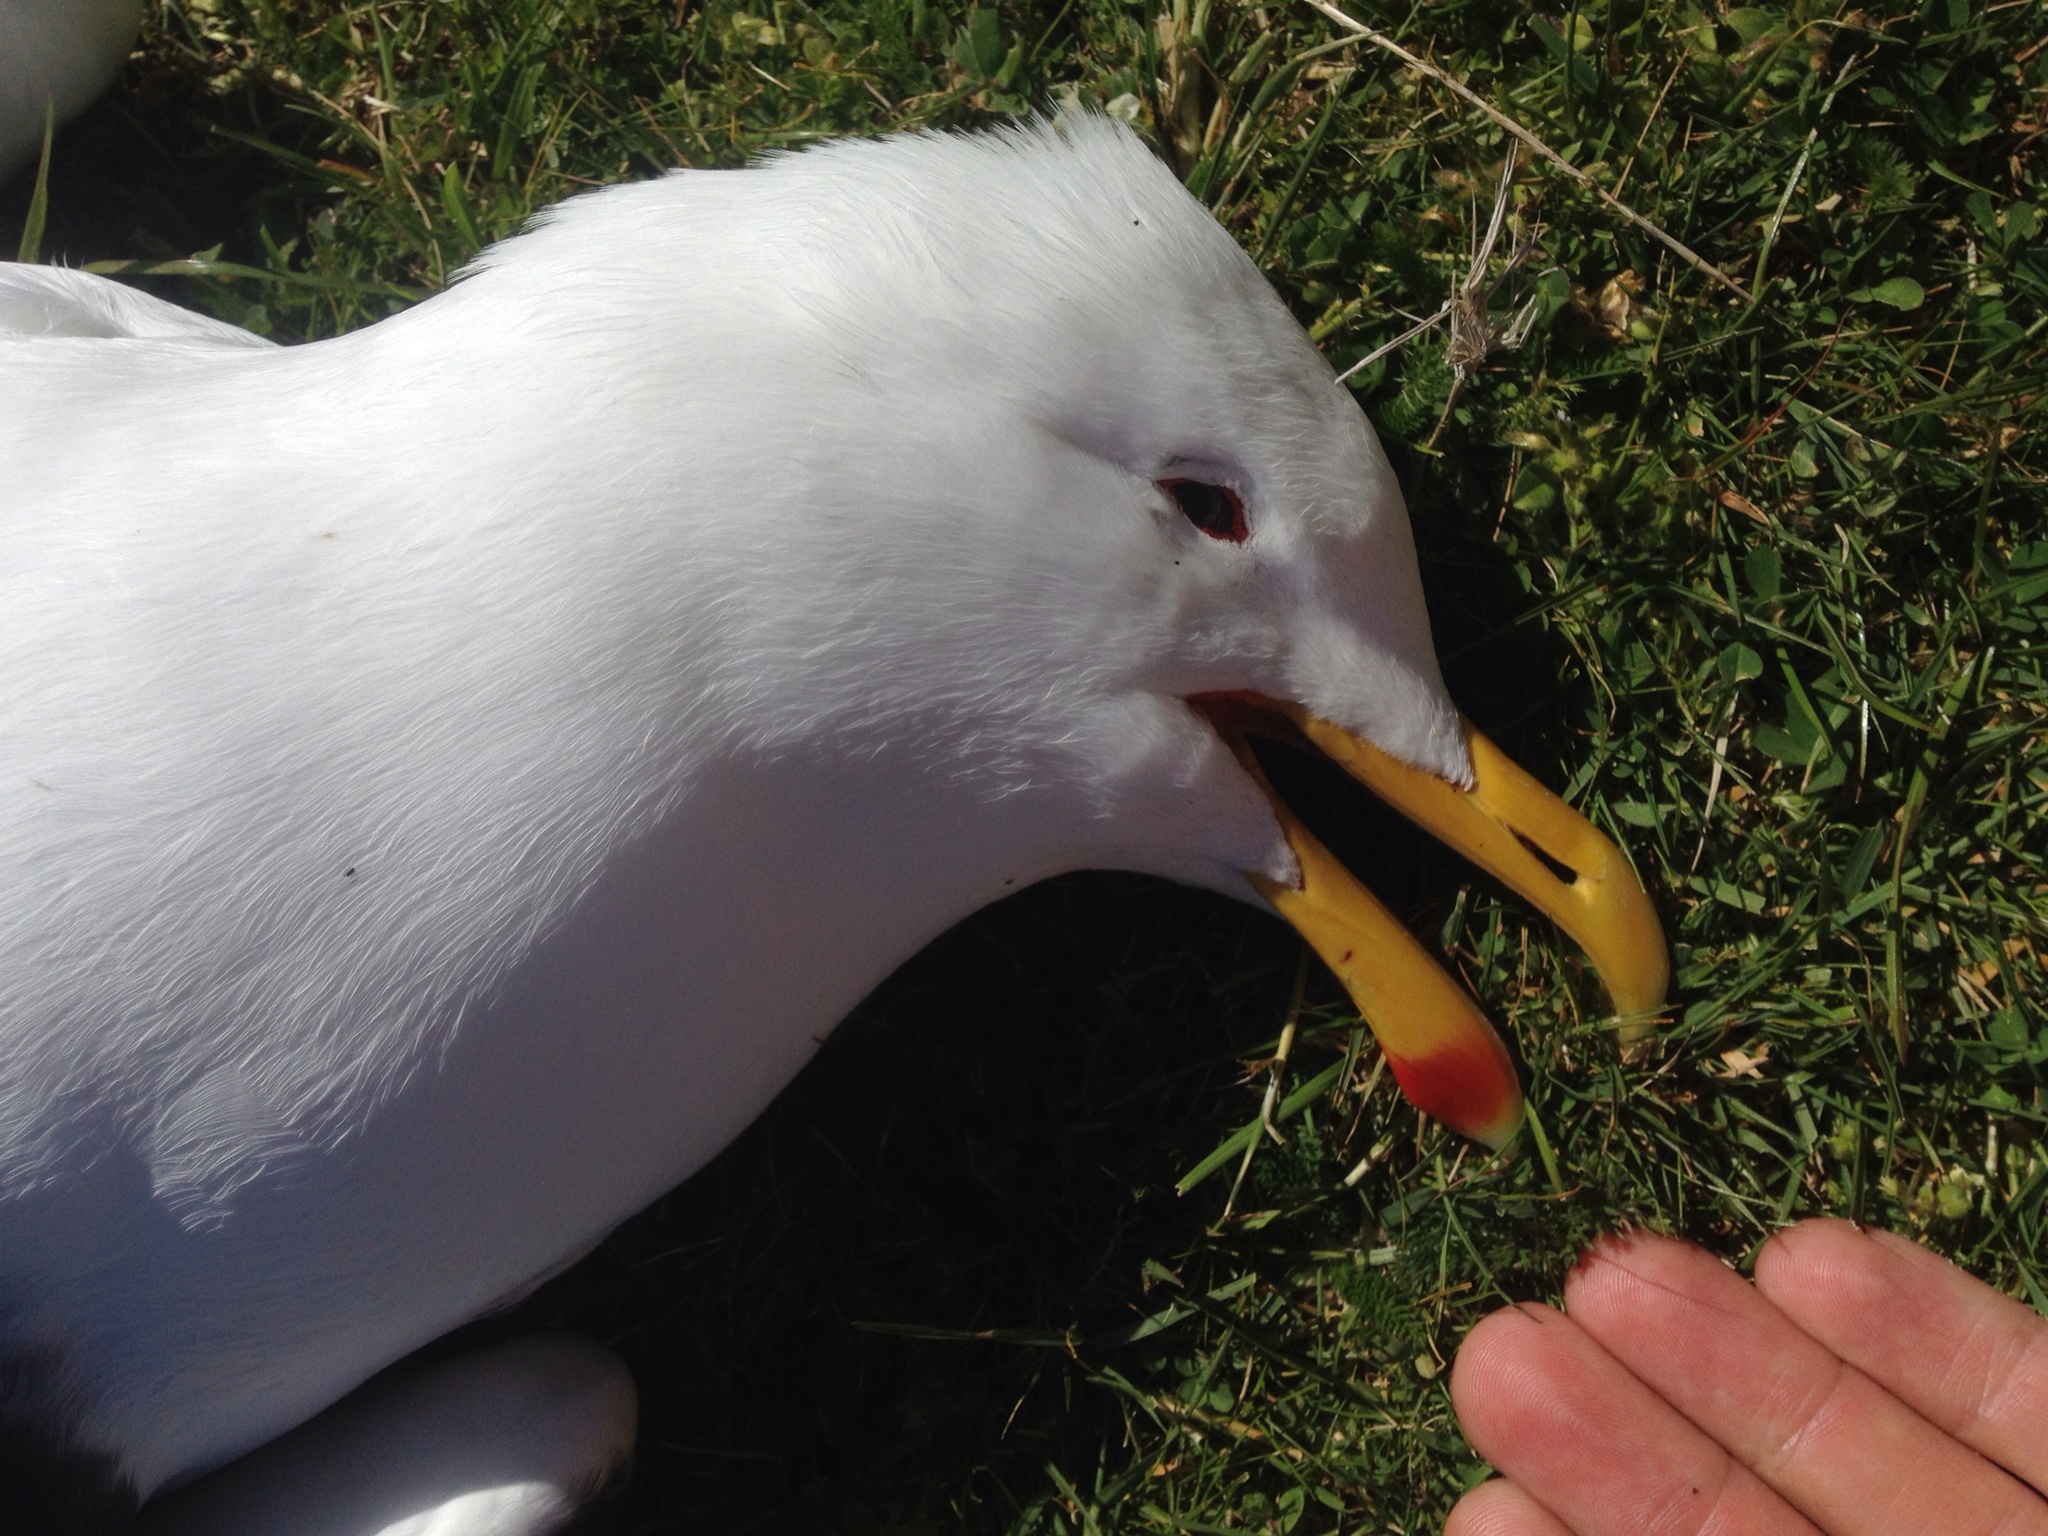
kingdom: Animalia
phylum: Chordata
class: Aves
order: Charadriiformes
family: Laridae
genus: Larus
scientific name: Larus dominicanus
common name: Kelp gull
